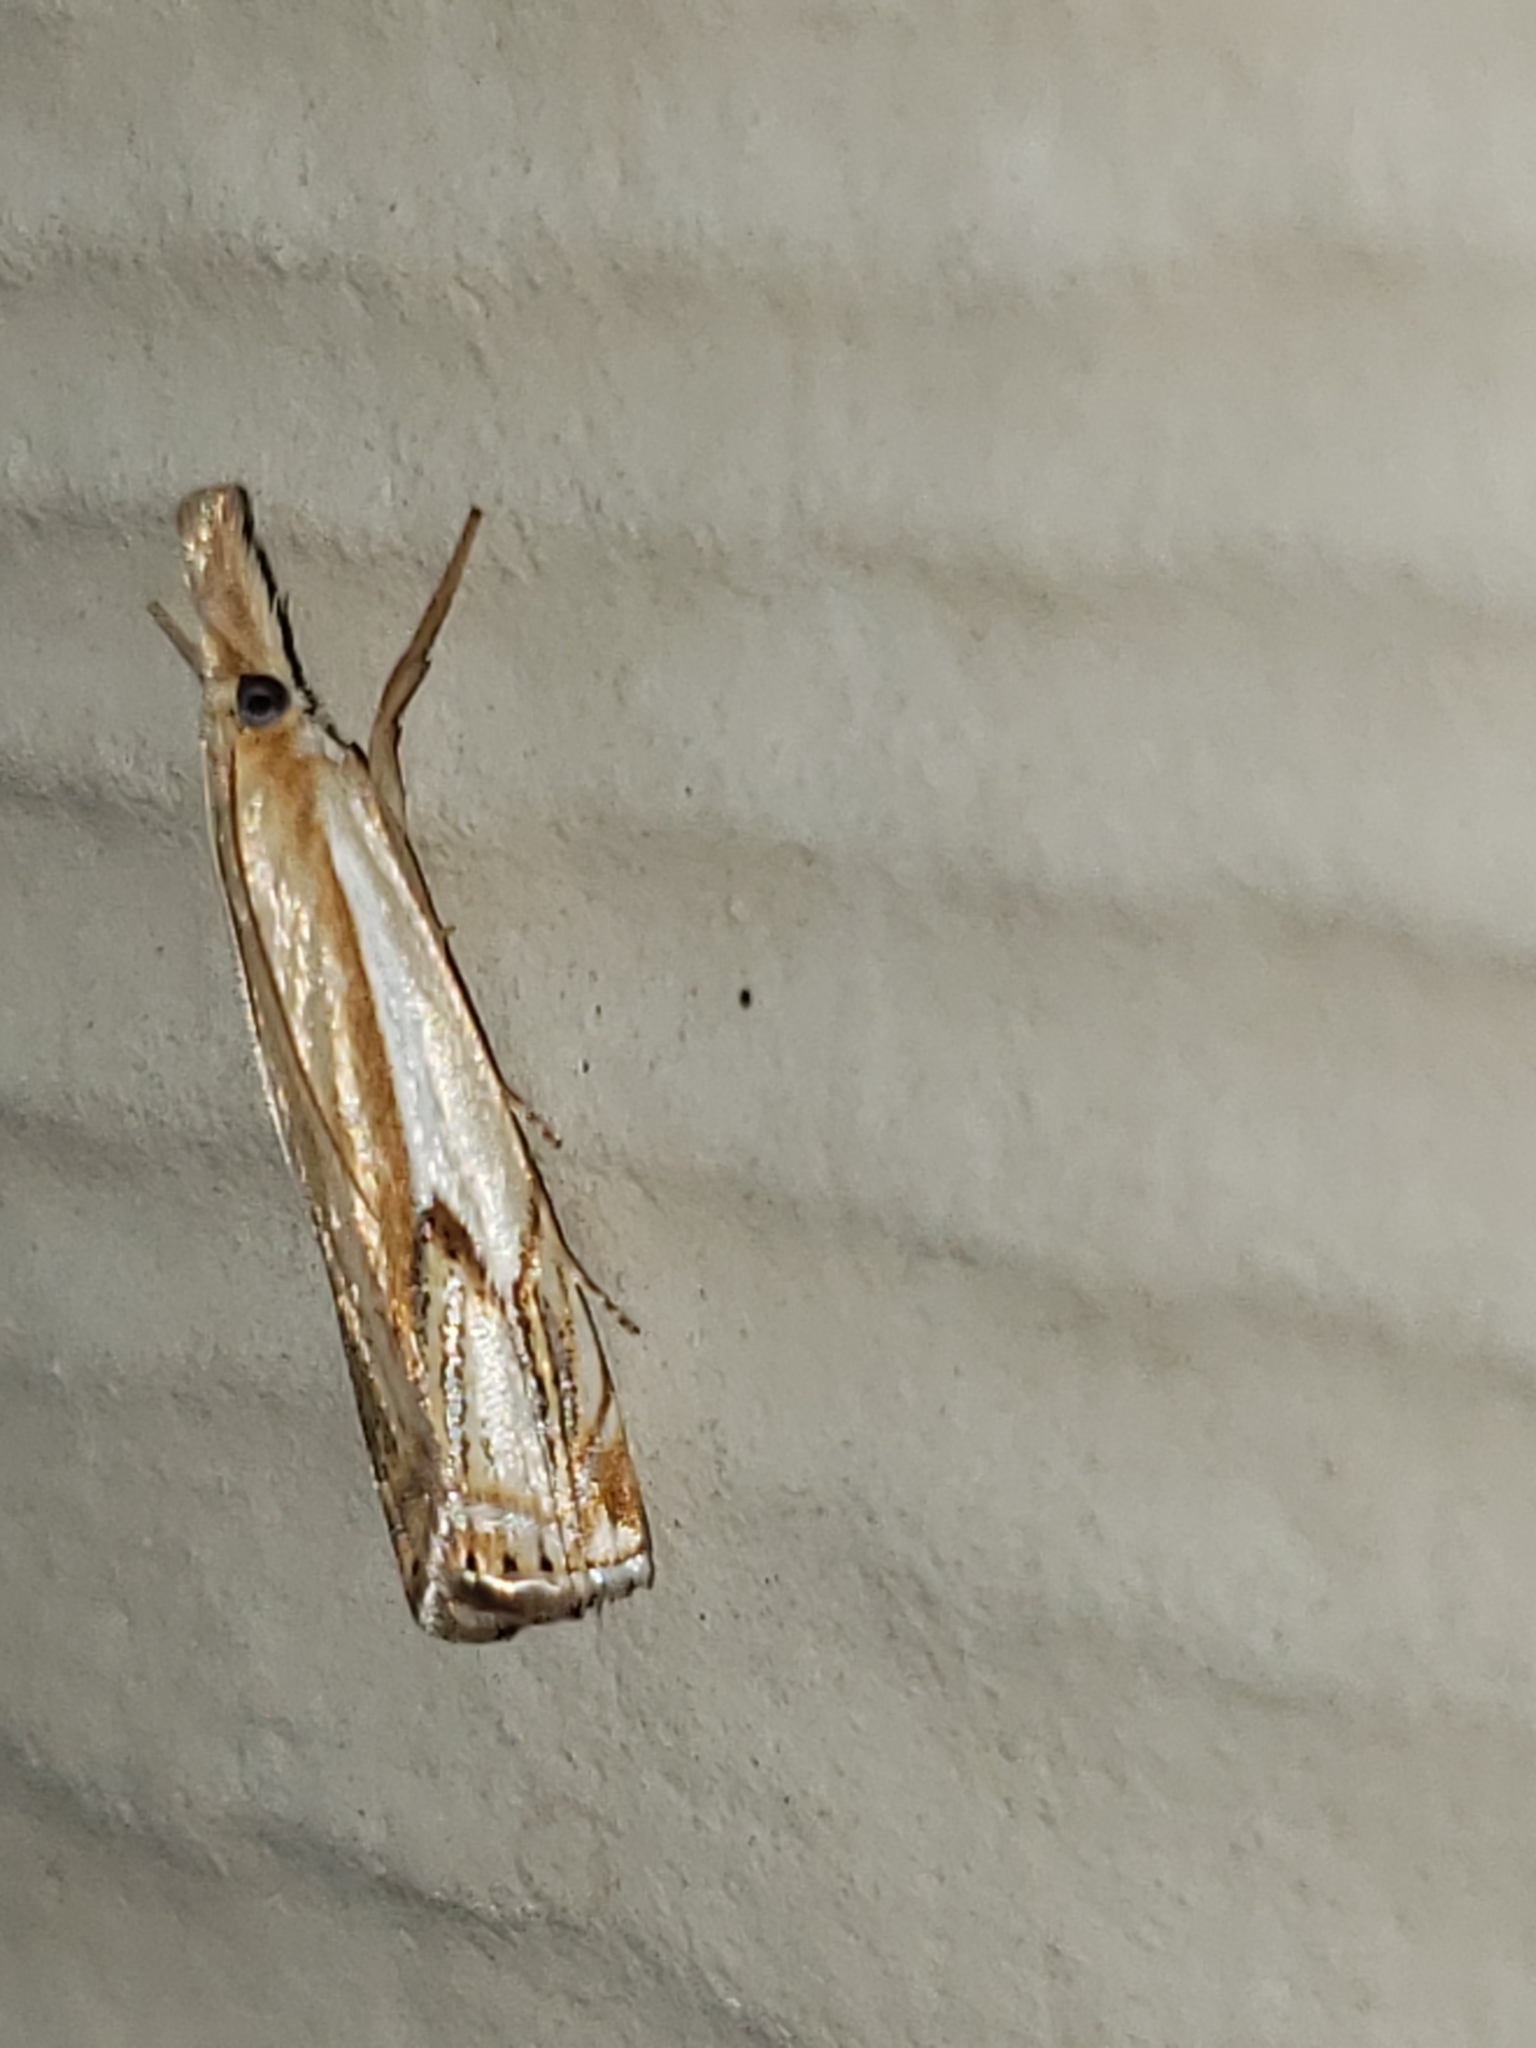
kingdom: Animalia
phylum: Arthropoda
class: Insecta
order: Lepidoptera
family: Crambidae
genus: Crambus
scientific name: Crambus agitatellus
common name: Double-banded grass-veneer
